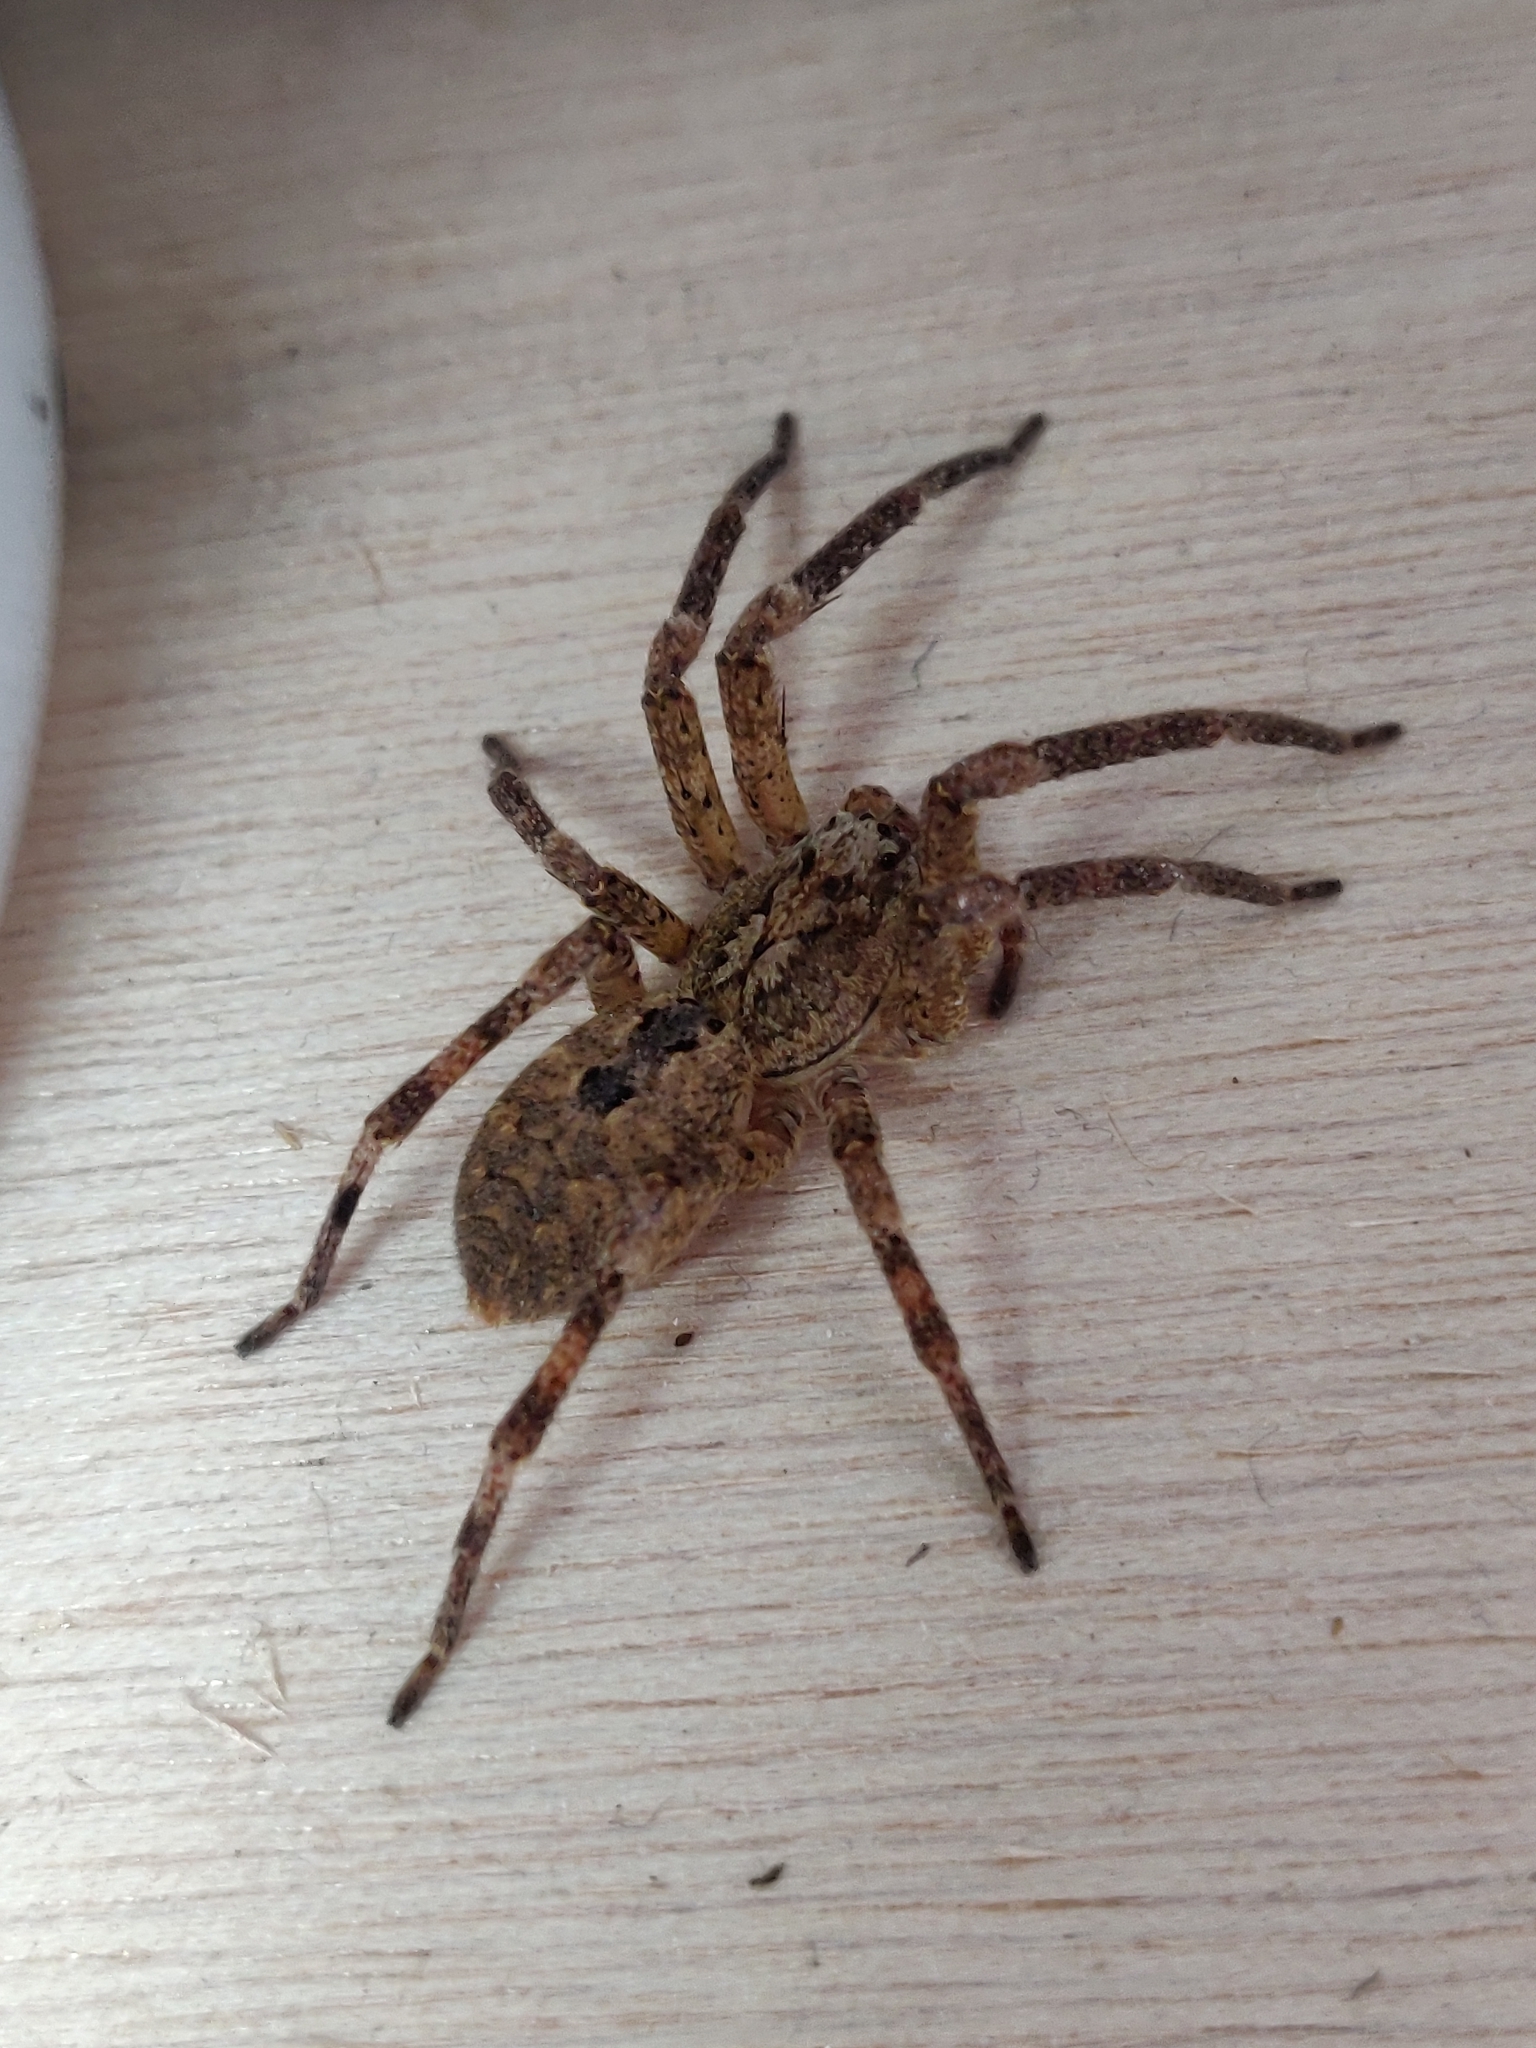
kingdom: Animalia
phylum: Arthropoda
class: Arachnida
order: Araneae
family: Zoropsidae
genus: Zoropsis
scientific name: Zoropsis spinimana
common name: Zoropsid spider
